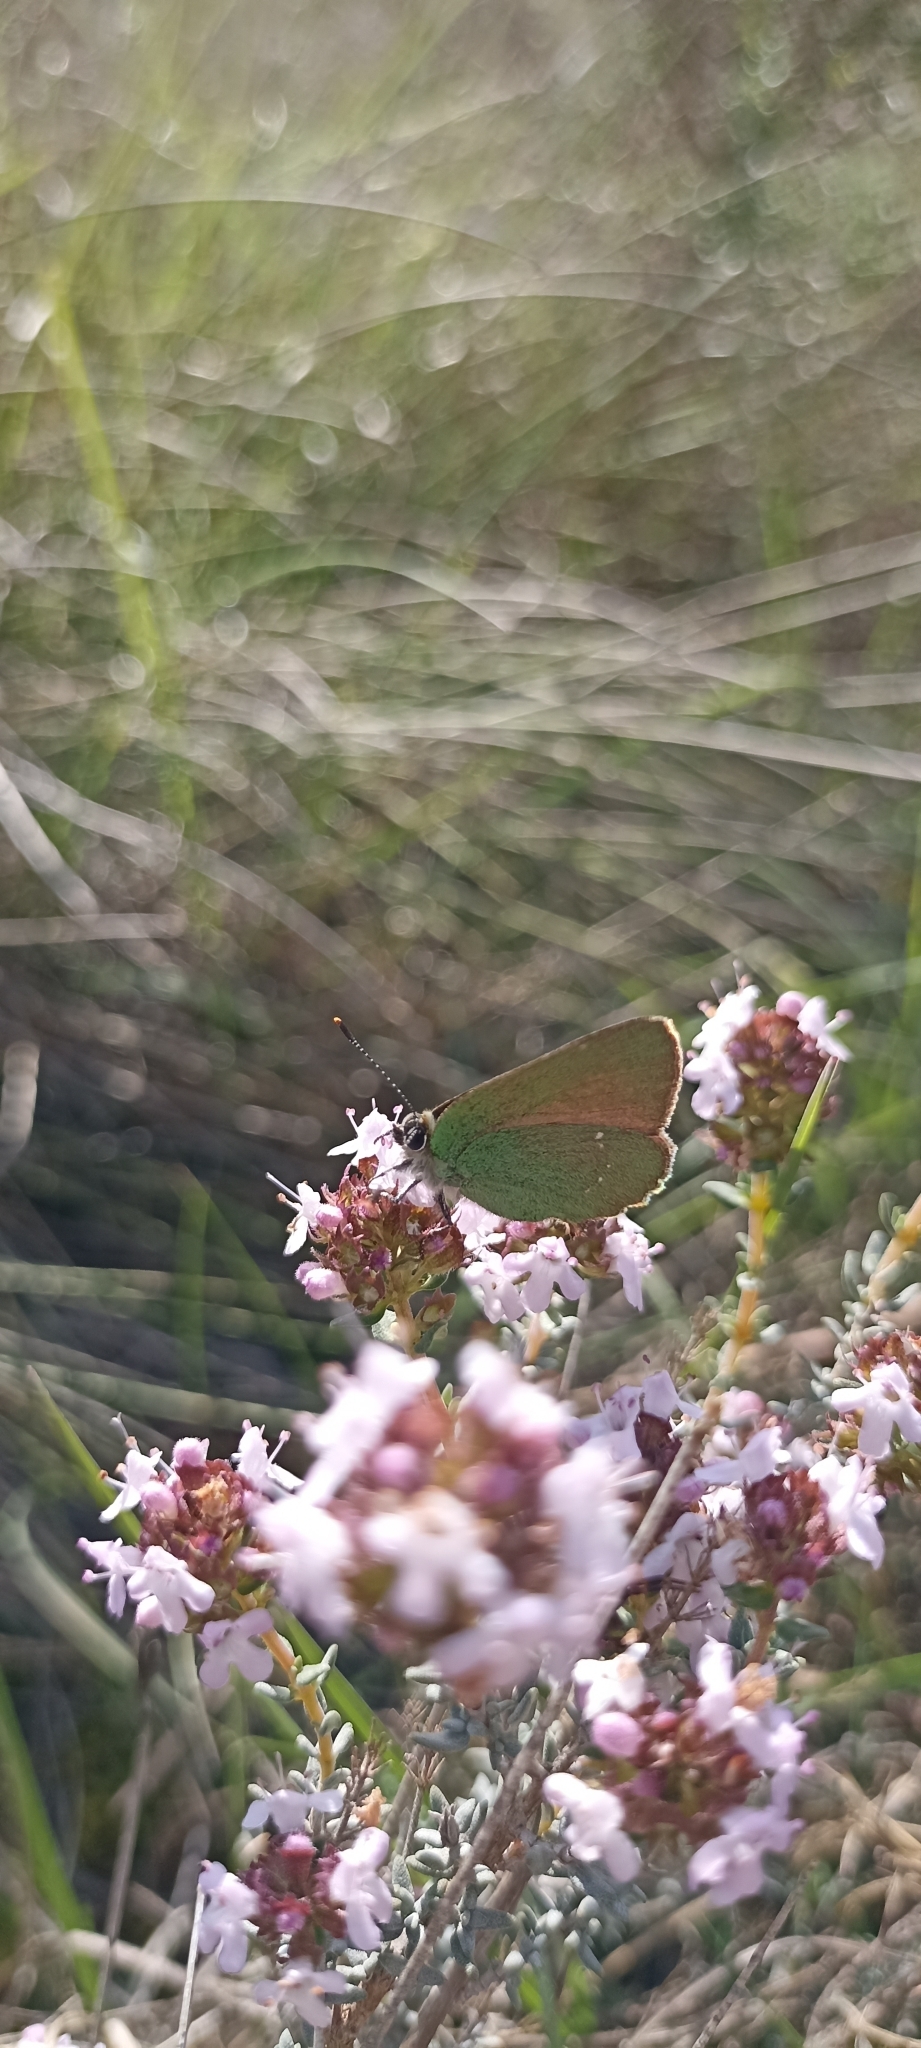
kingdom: Animalia
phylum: Arthropoda
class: Insecta
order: Lepidoptera
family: Lycaenidae
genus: Callophrys
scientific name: Callophrys rubi
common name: Green hairstreak
